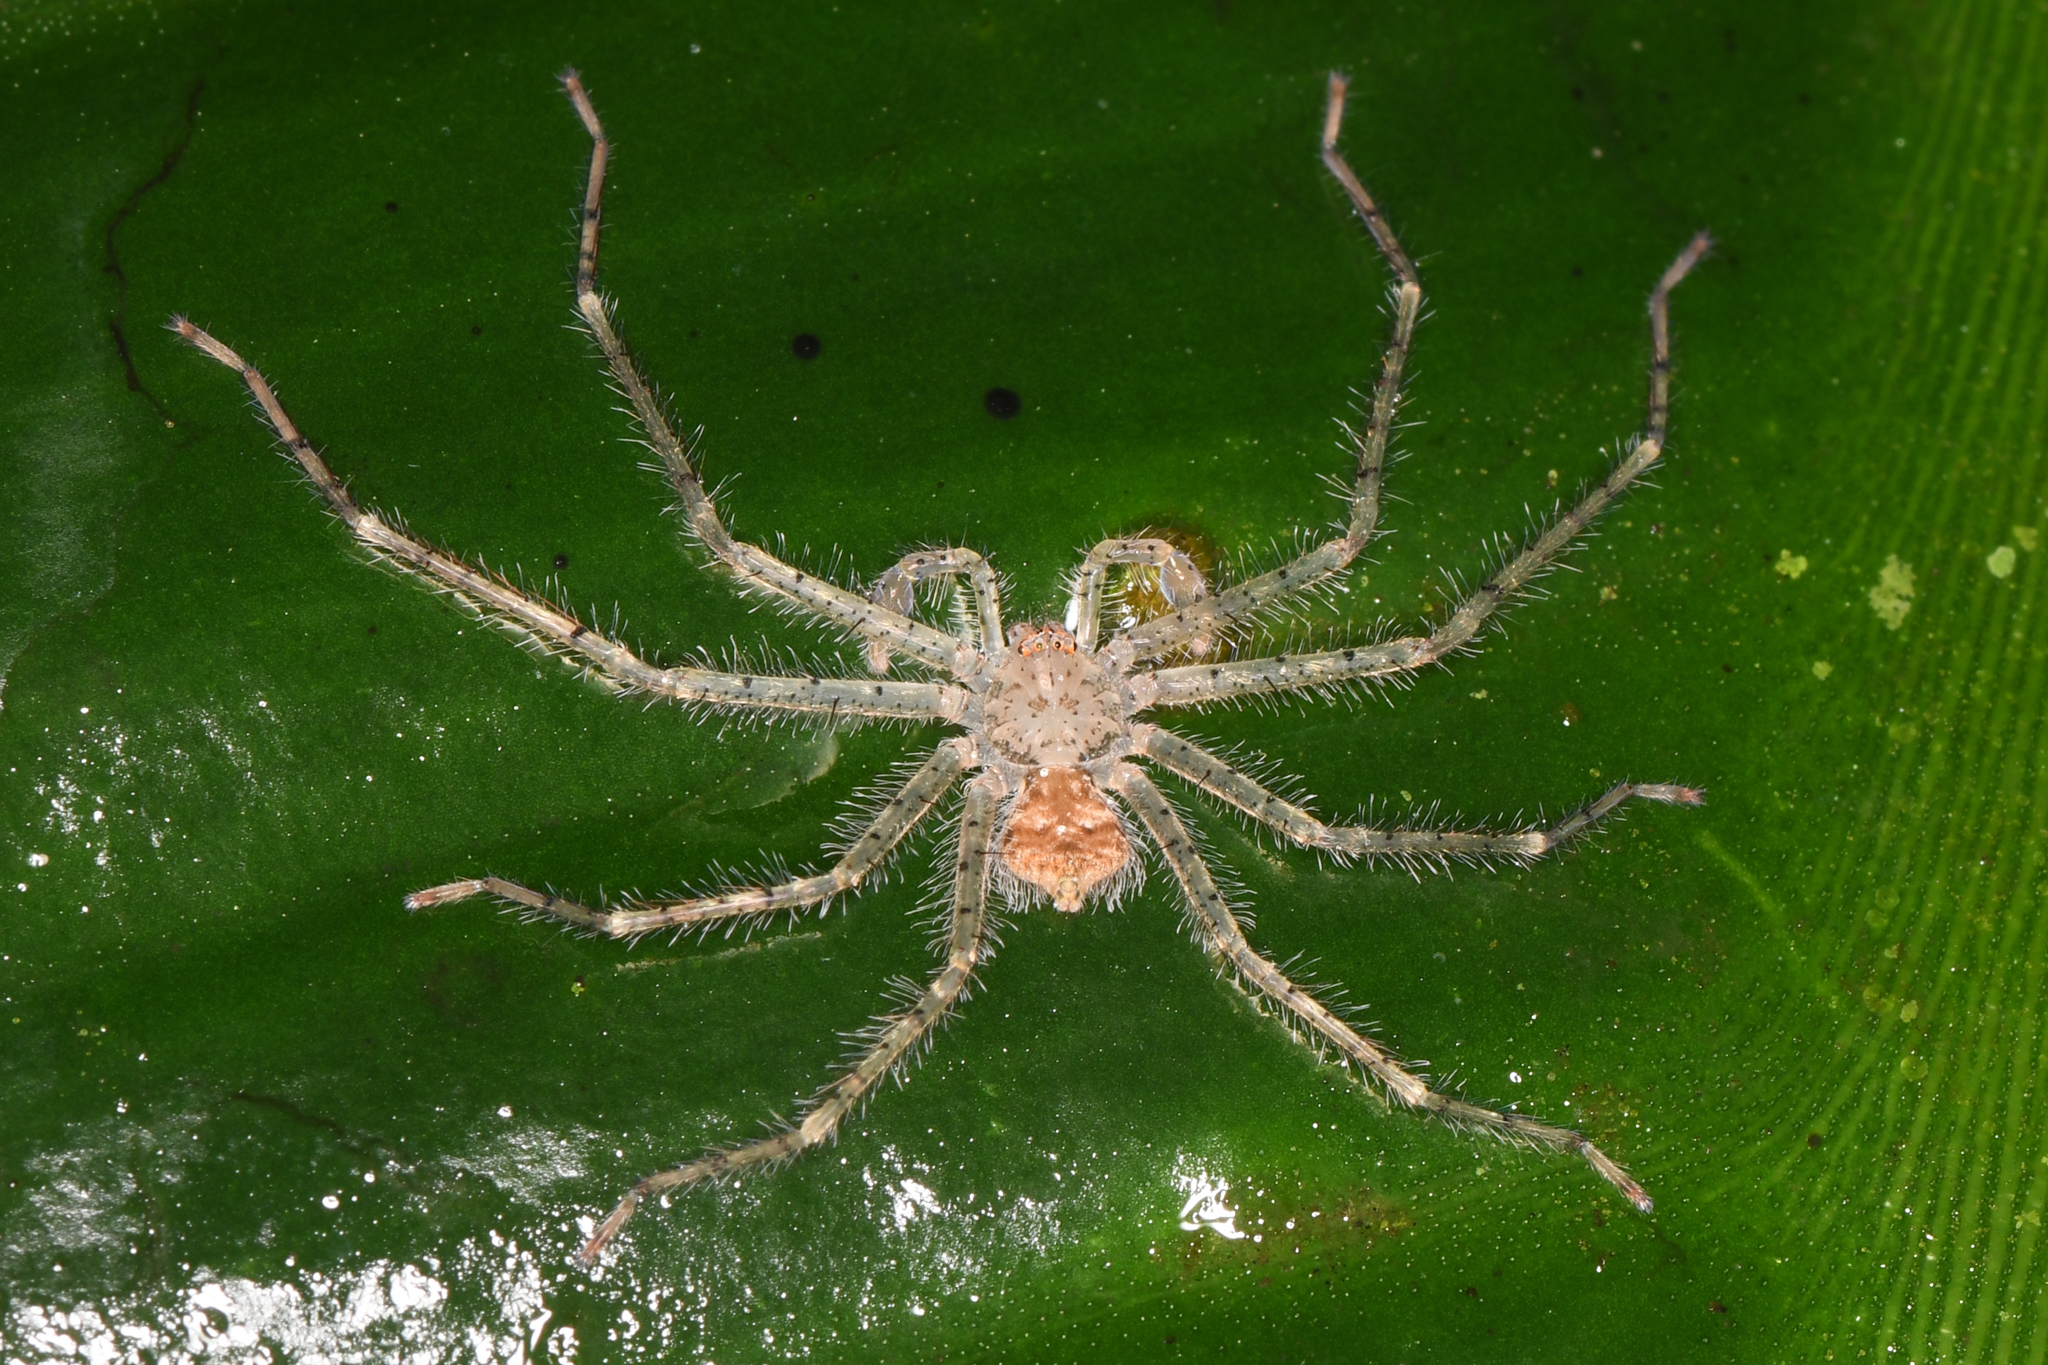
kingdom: Animalia
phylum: Arthropoda
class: Arachnida
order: Araneae
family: Sparassidae
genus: Sparianthina
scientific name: Sparianthina selenopoides
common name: Huntsman spiders
